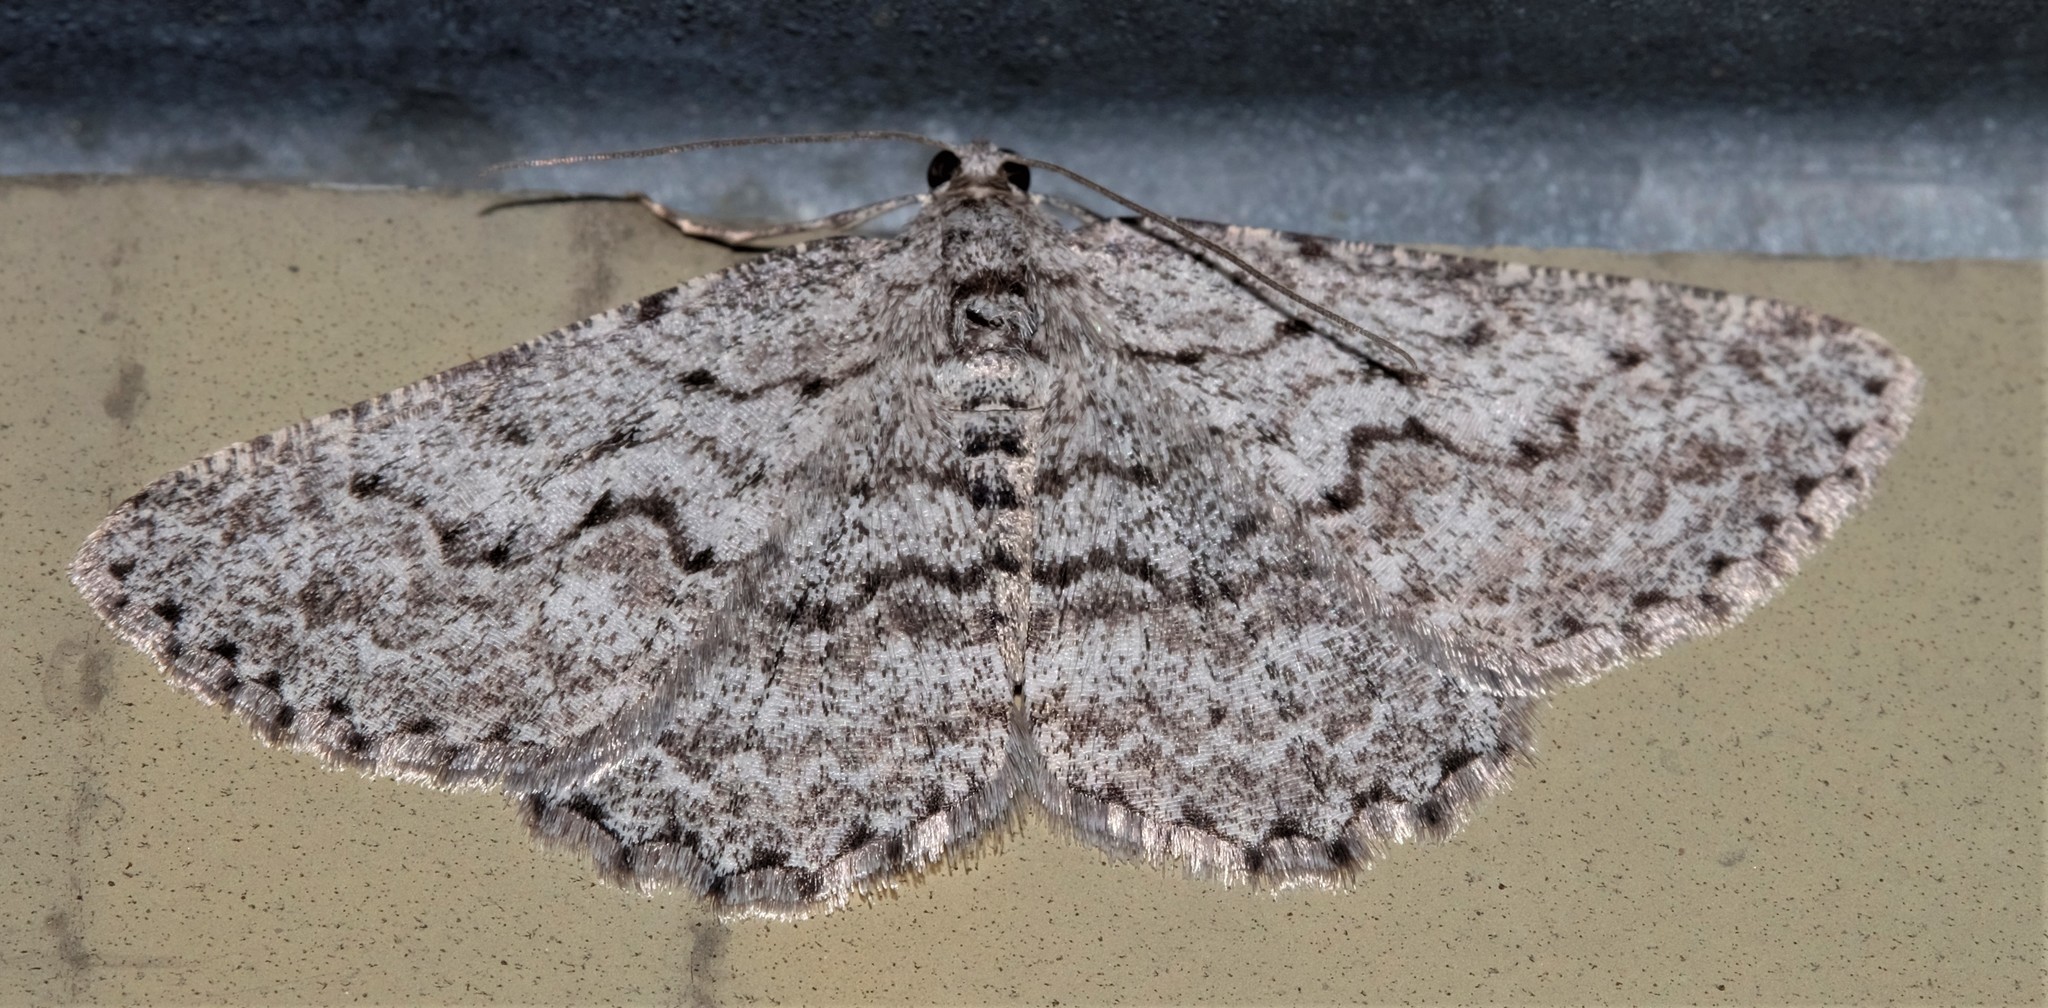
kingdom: Animalia
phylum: Arthropoda
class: Insecta
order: Lepidoptera
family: Geometridae
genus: Psilosticha
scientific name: Psilosticha absorpta
